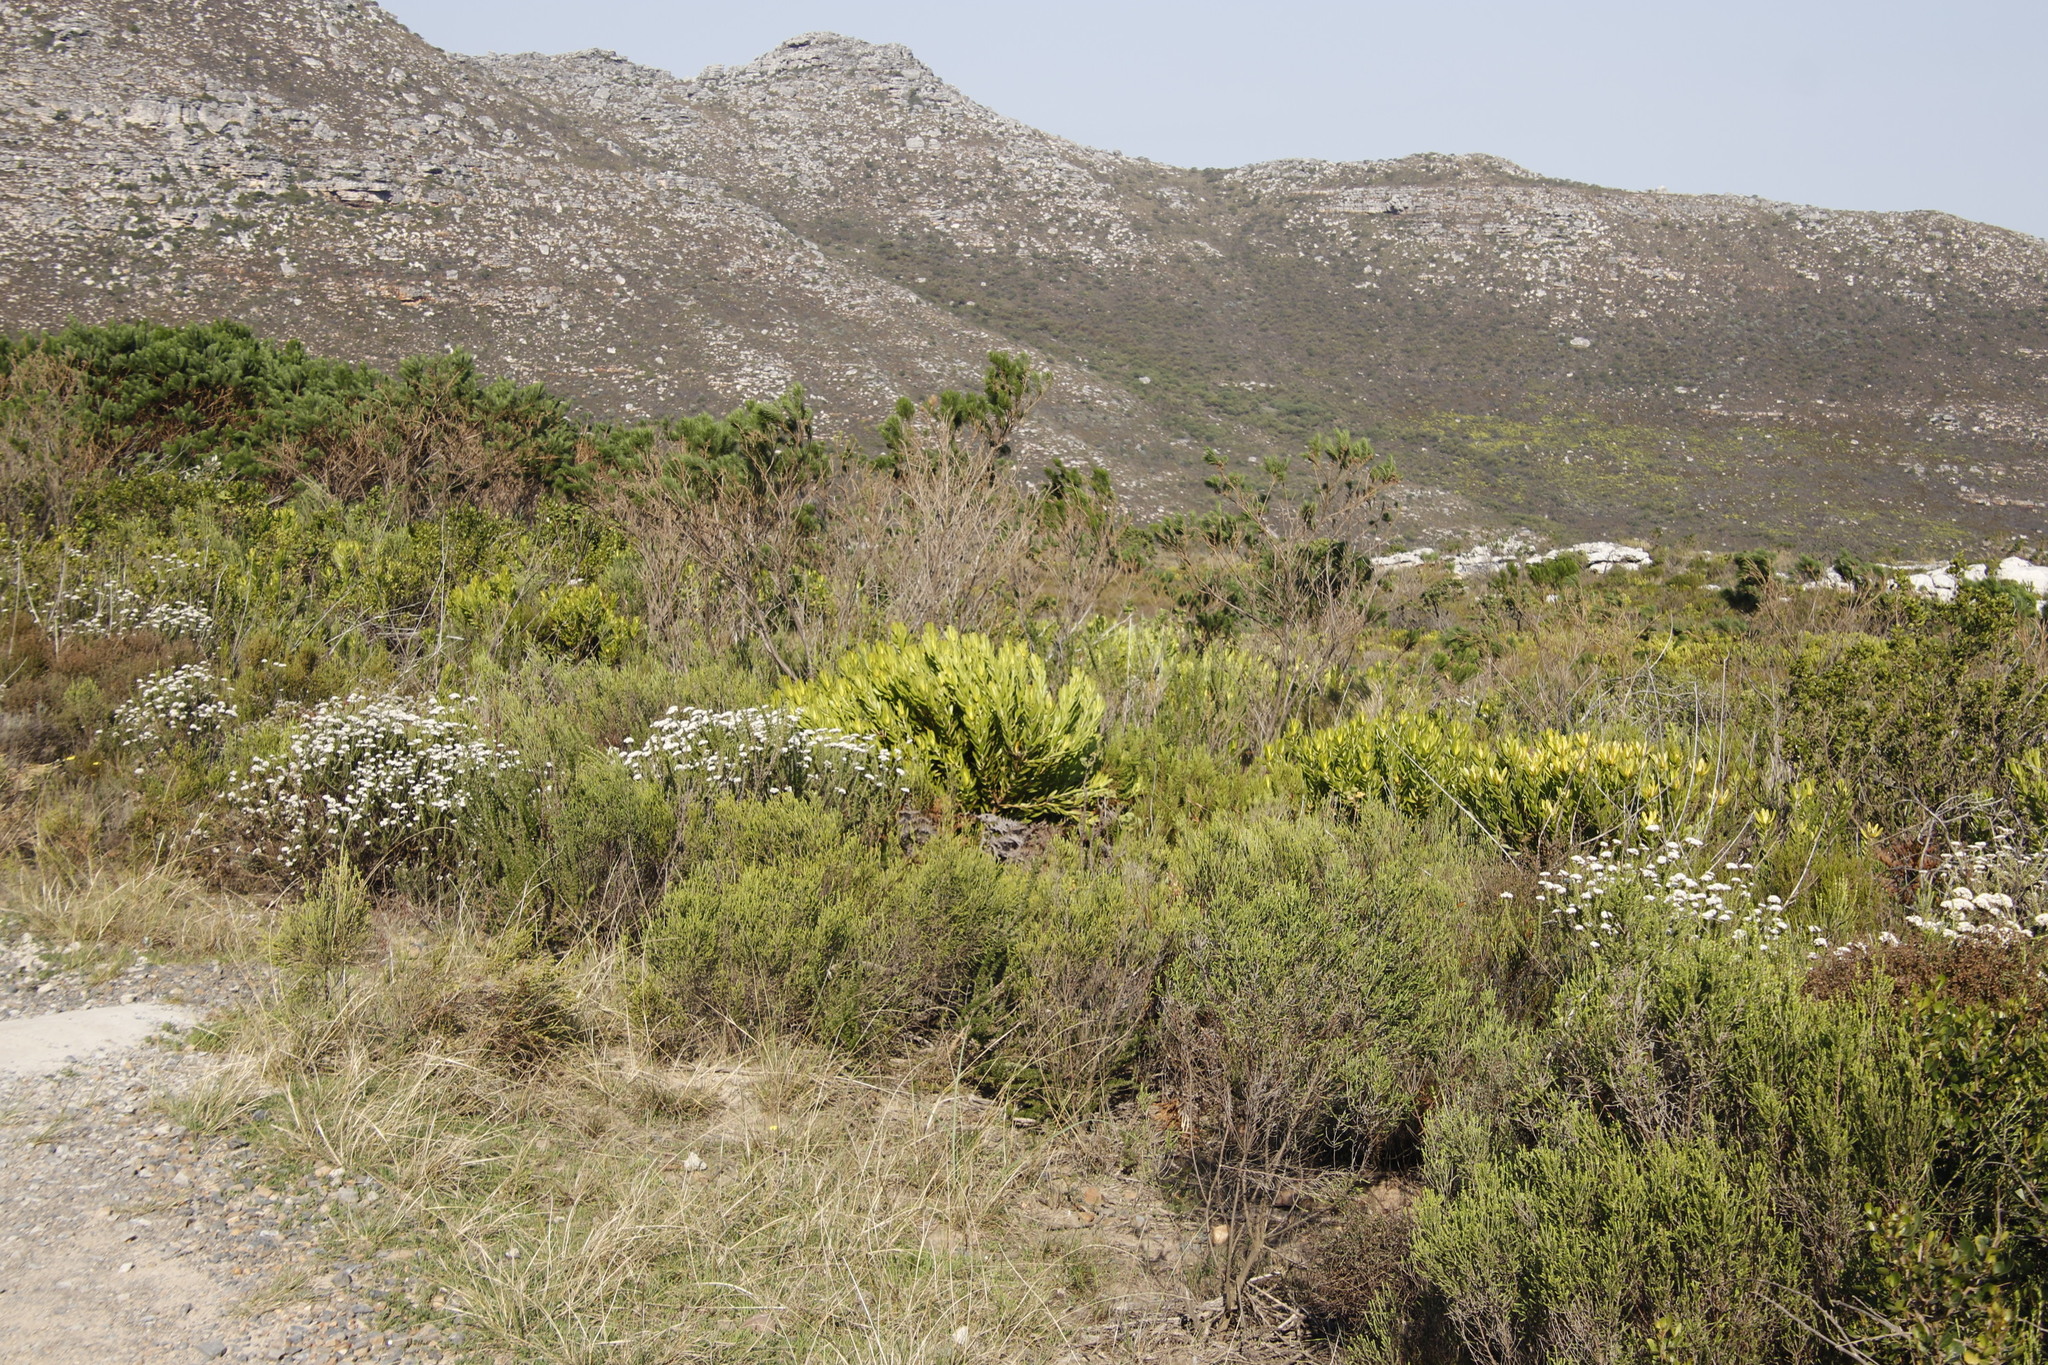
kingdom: Plantae
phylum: Tracheophyta
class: Magnoliopsida
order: Proteales
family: Proteaceae
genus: Leucadendron
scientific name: Leucadendron laureolum
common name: Golden sunshinebush
